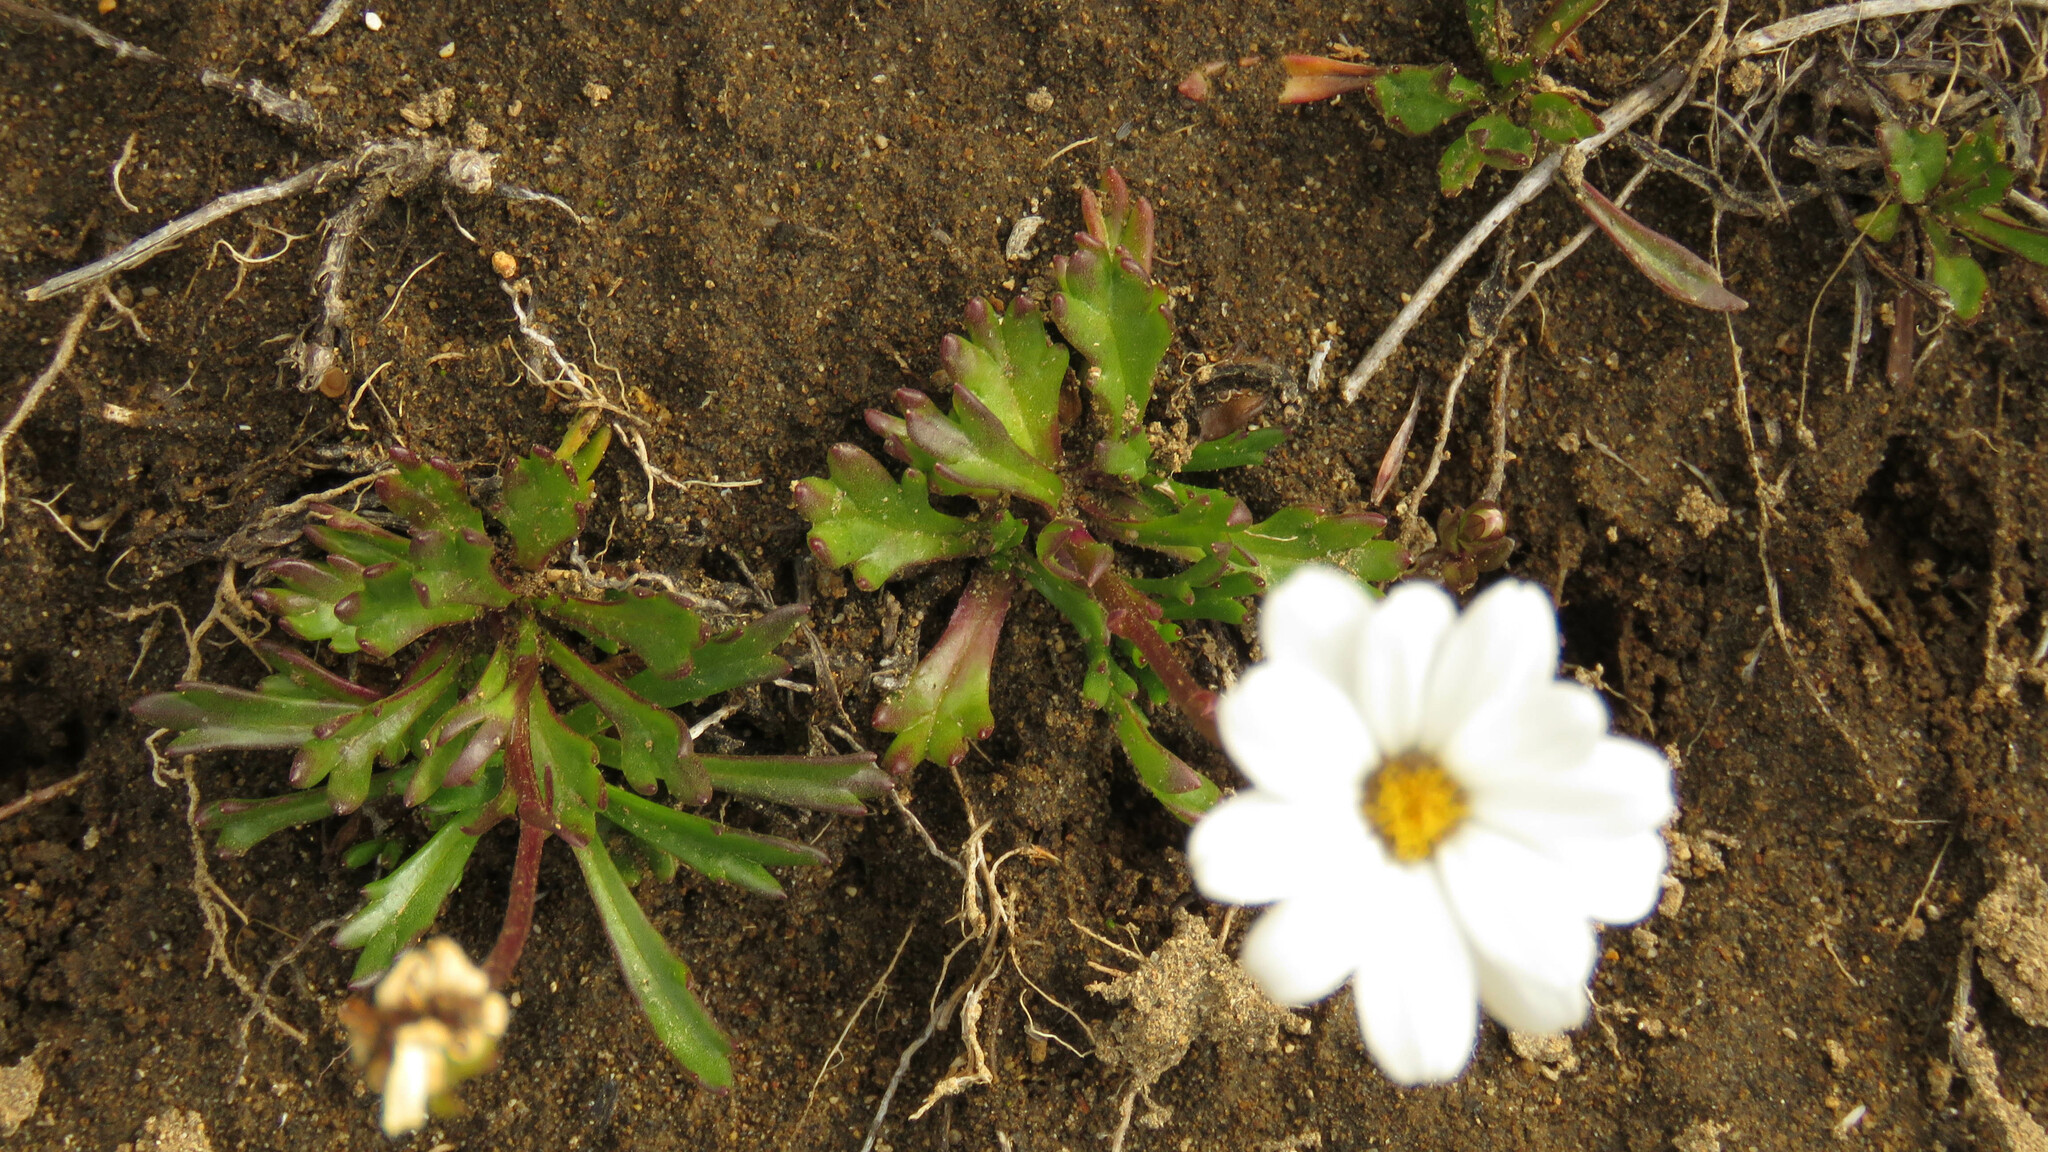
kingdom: Plantae
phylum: Tracheophyta
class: Magnoliopsida
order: Asterales
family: Asteraceae
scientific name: Asteraceae
